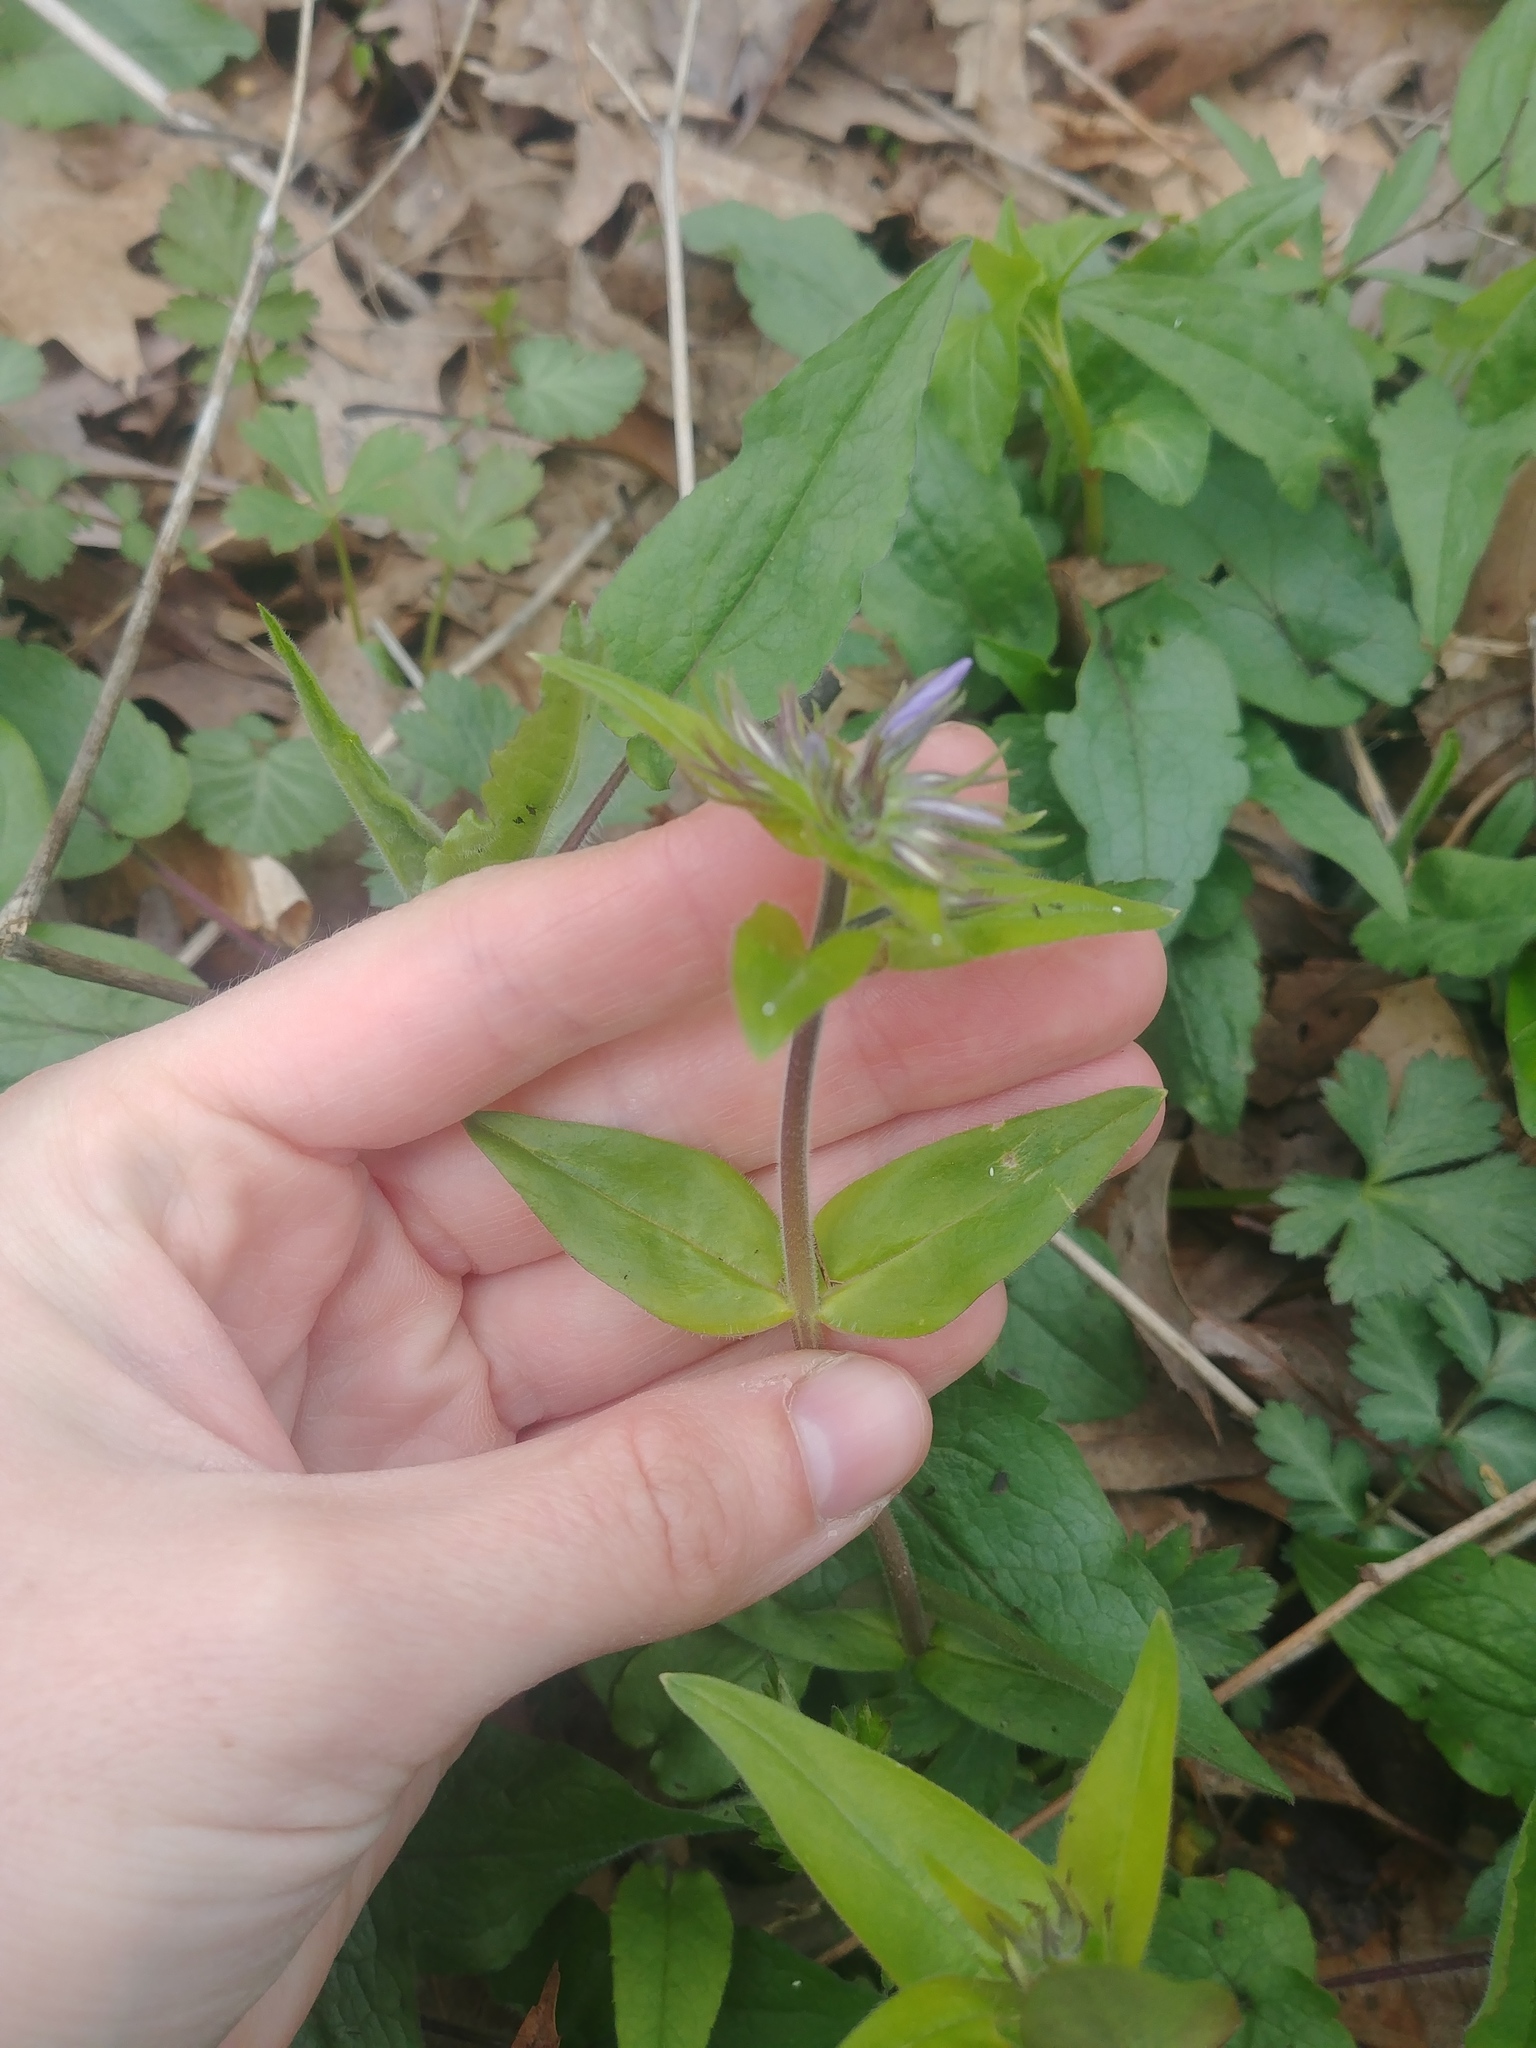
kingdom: Plantae
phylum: Tracheophyta
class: Magnoliopsida
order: Ericales
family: Polemoniaceae
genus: Phlox
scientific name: Phlox divaricata
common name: Blue phlox
